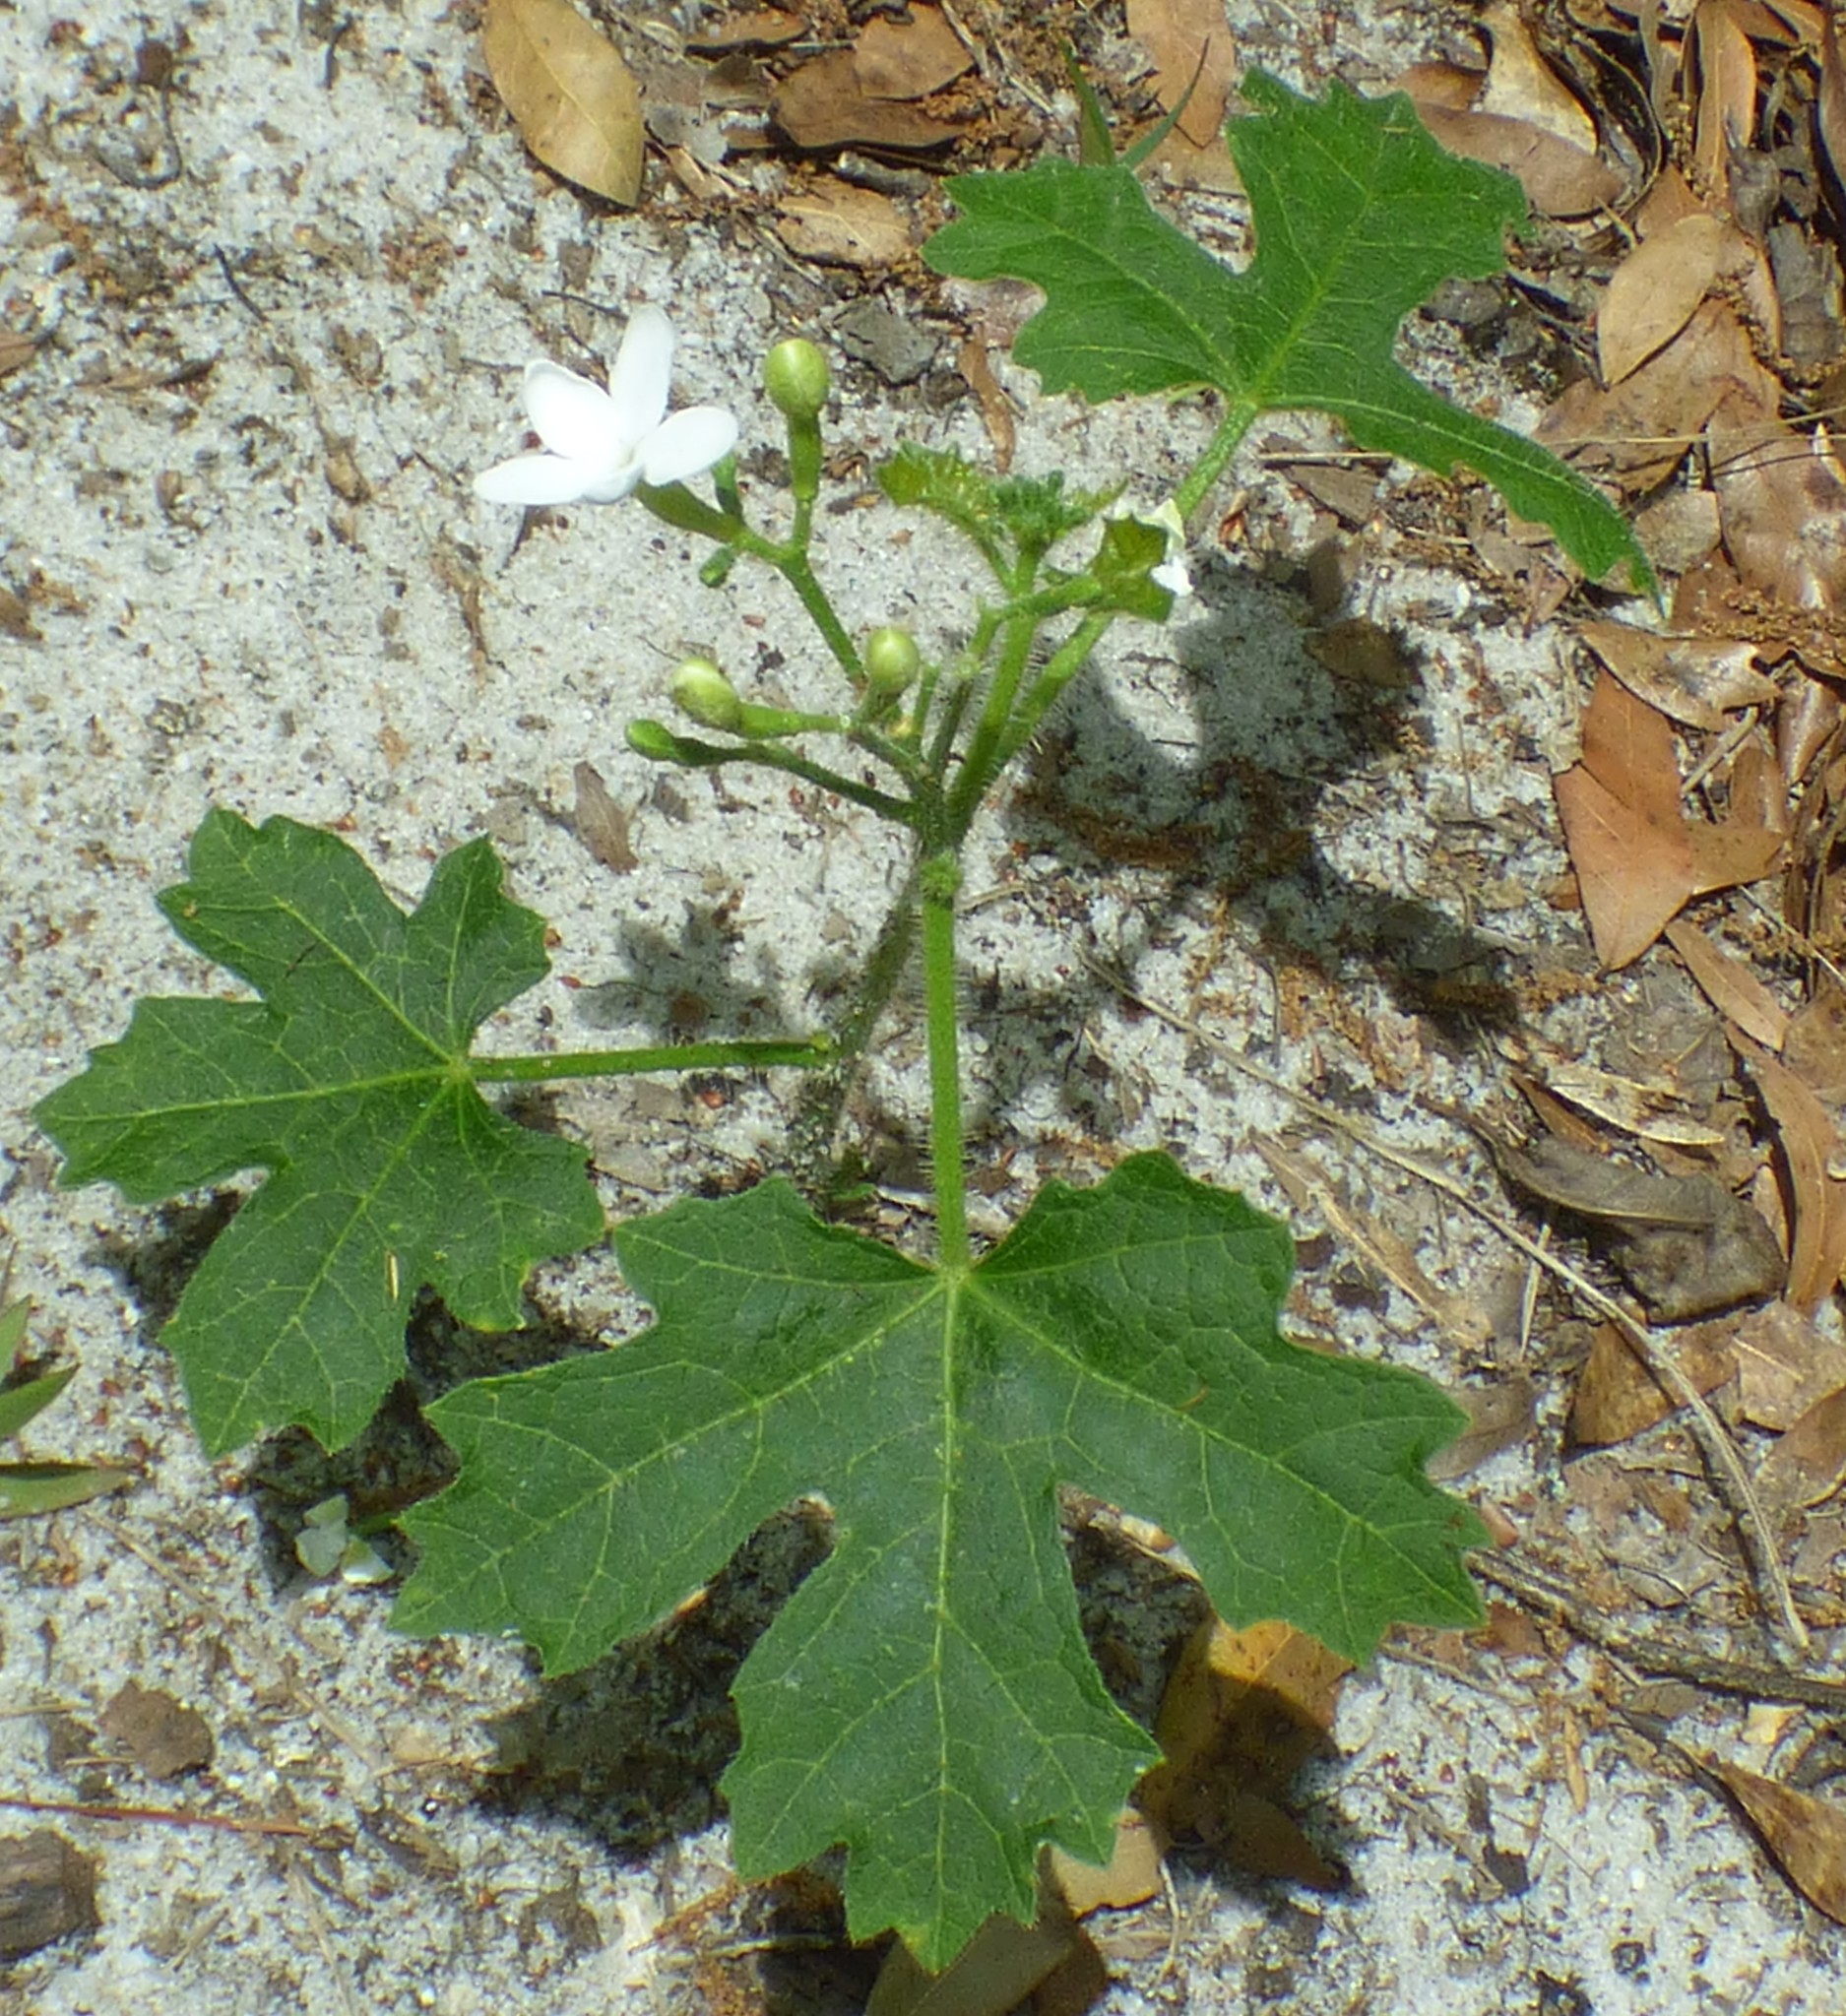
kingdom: Plantae
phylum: Tracheophyta
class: Magnoliopsida
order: Malpighiales
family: Euphorbiaceae
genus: Cnidoscolus
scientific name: Cnidoscolus stimulosus
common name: Bull-nettle
